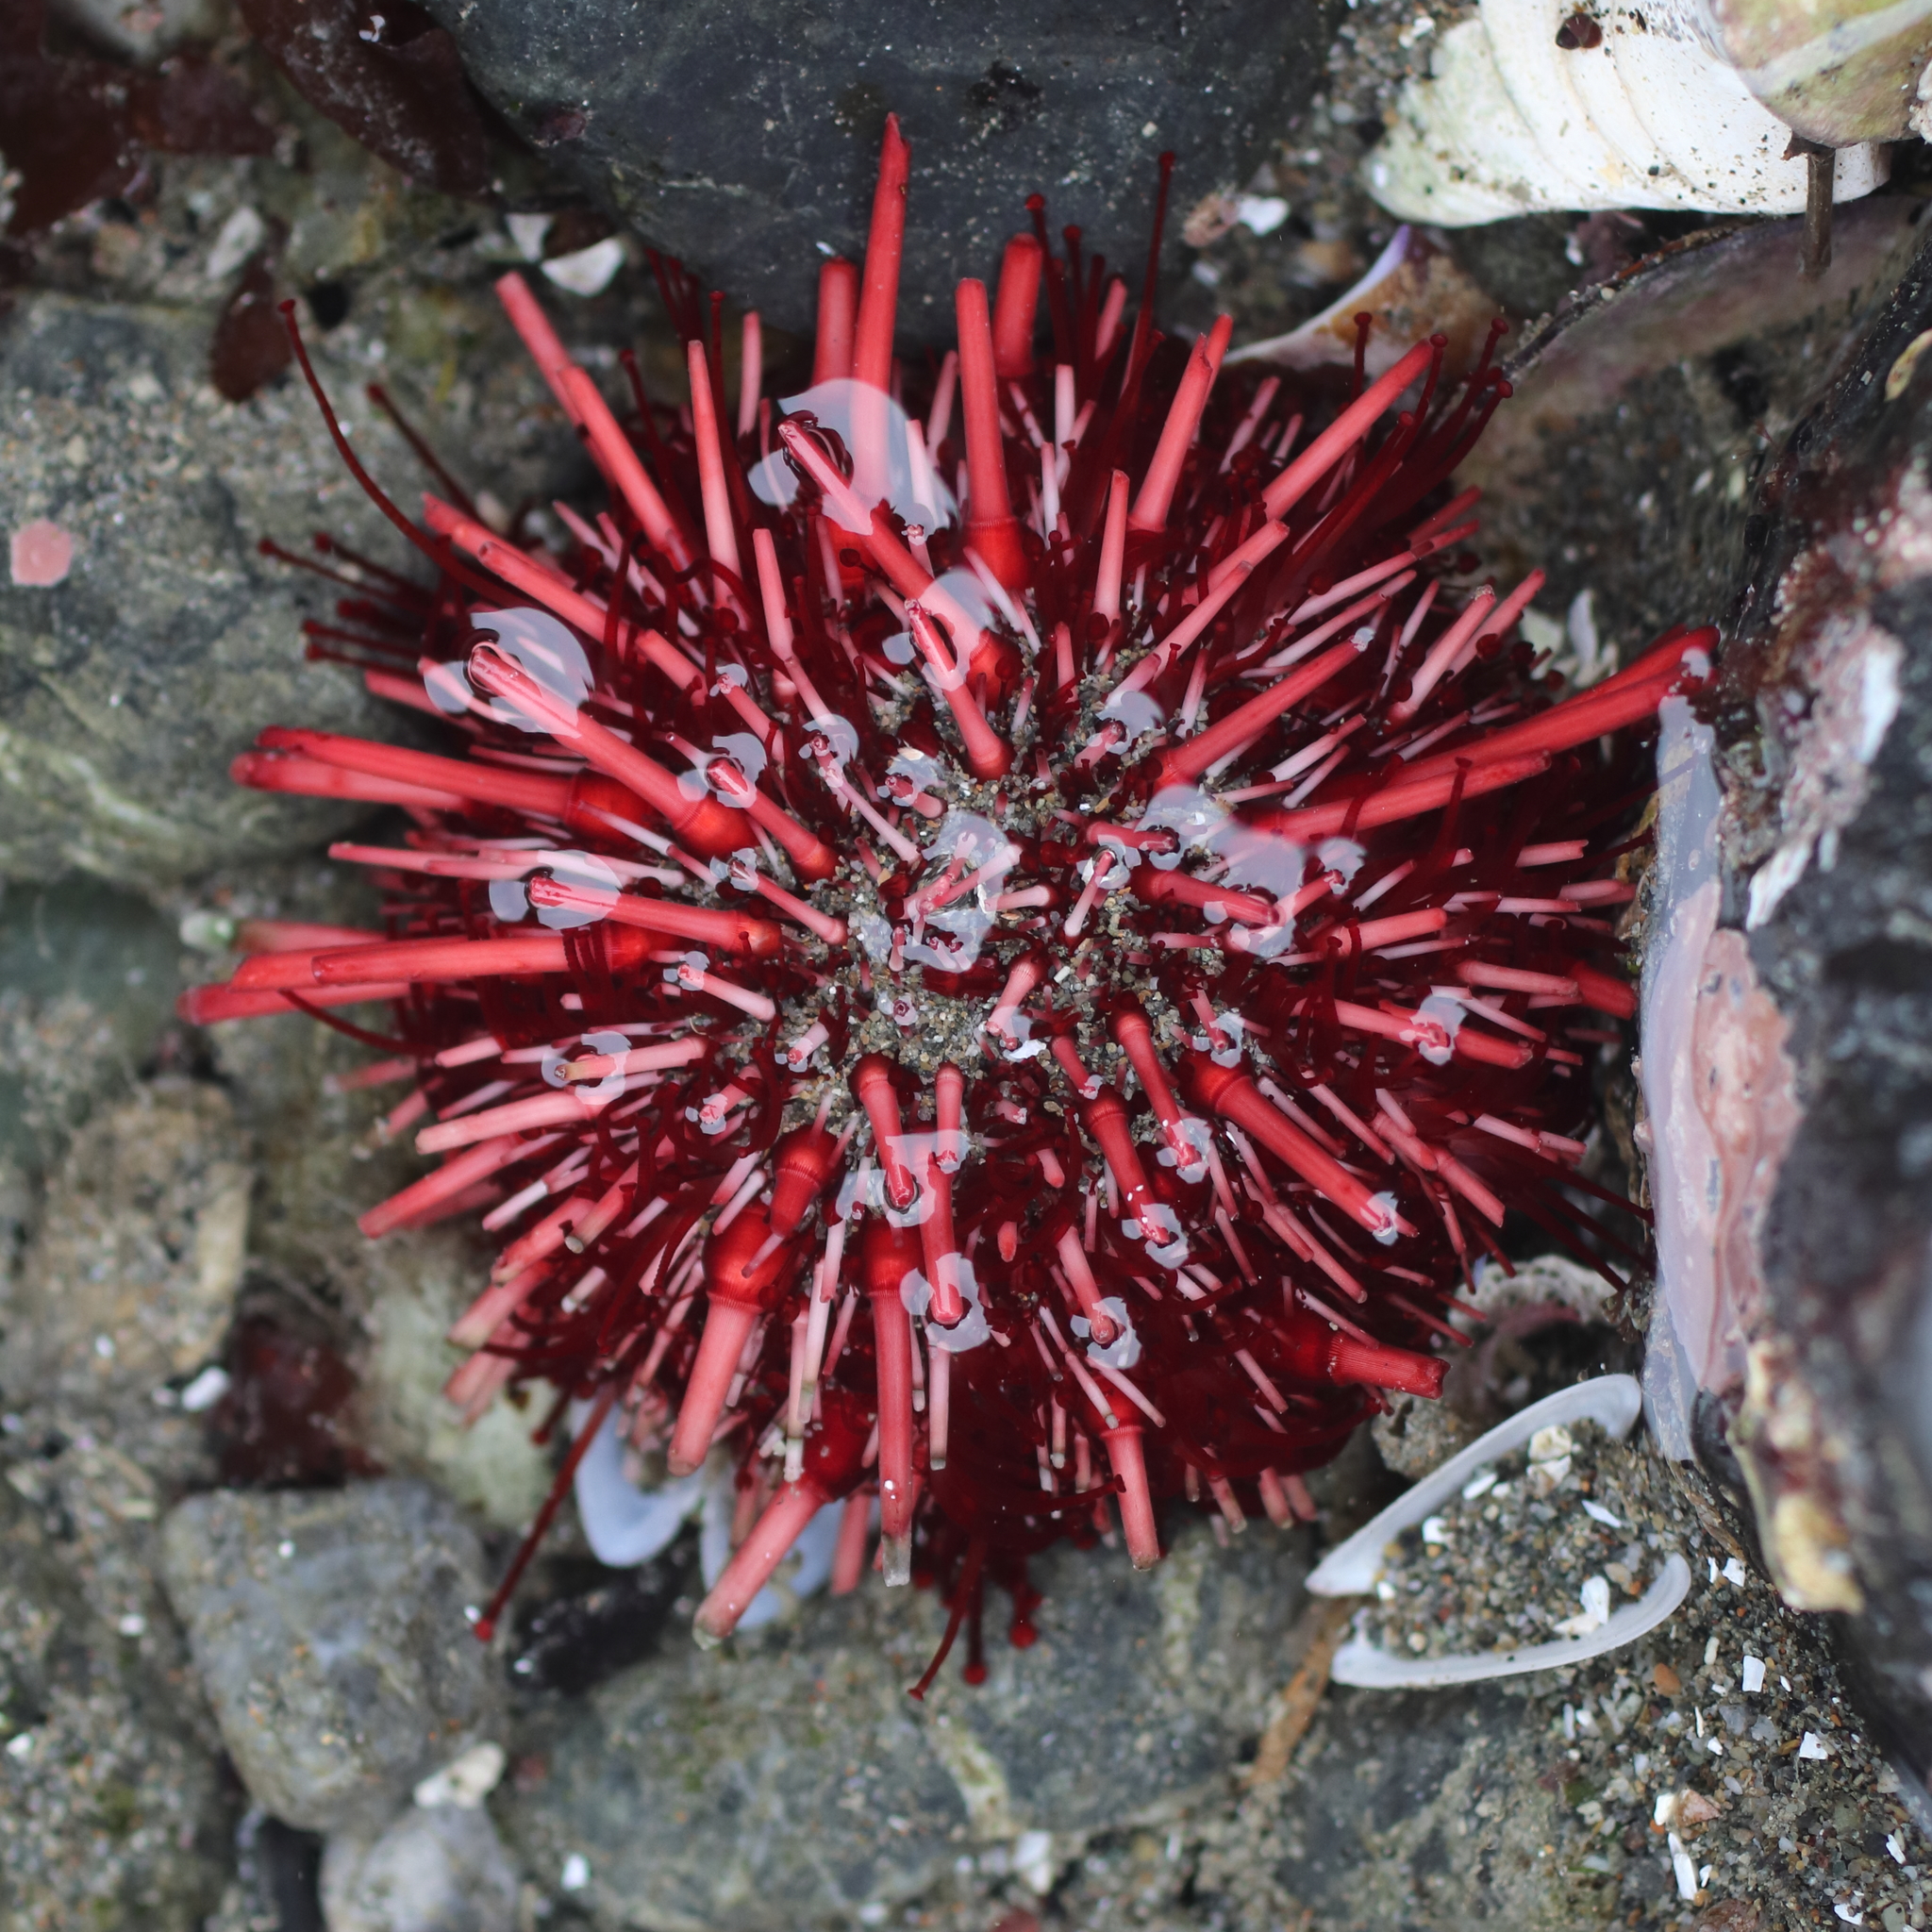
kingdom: Animalia
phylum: Echinodermata
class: Echinoidea
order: Camarodonta
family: Strongylocentrotidae
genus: Mesocentrotus
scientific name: Mesocentrotus franciscanus
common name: Red sea urchin
